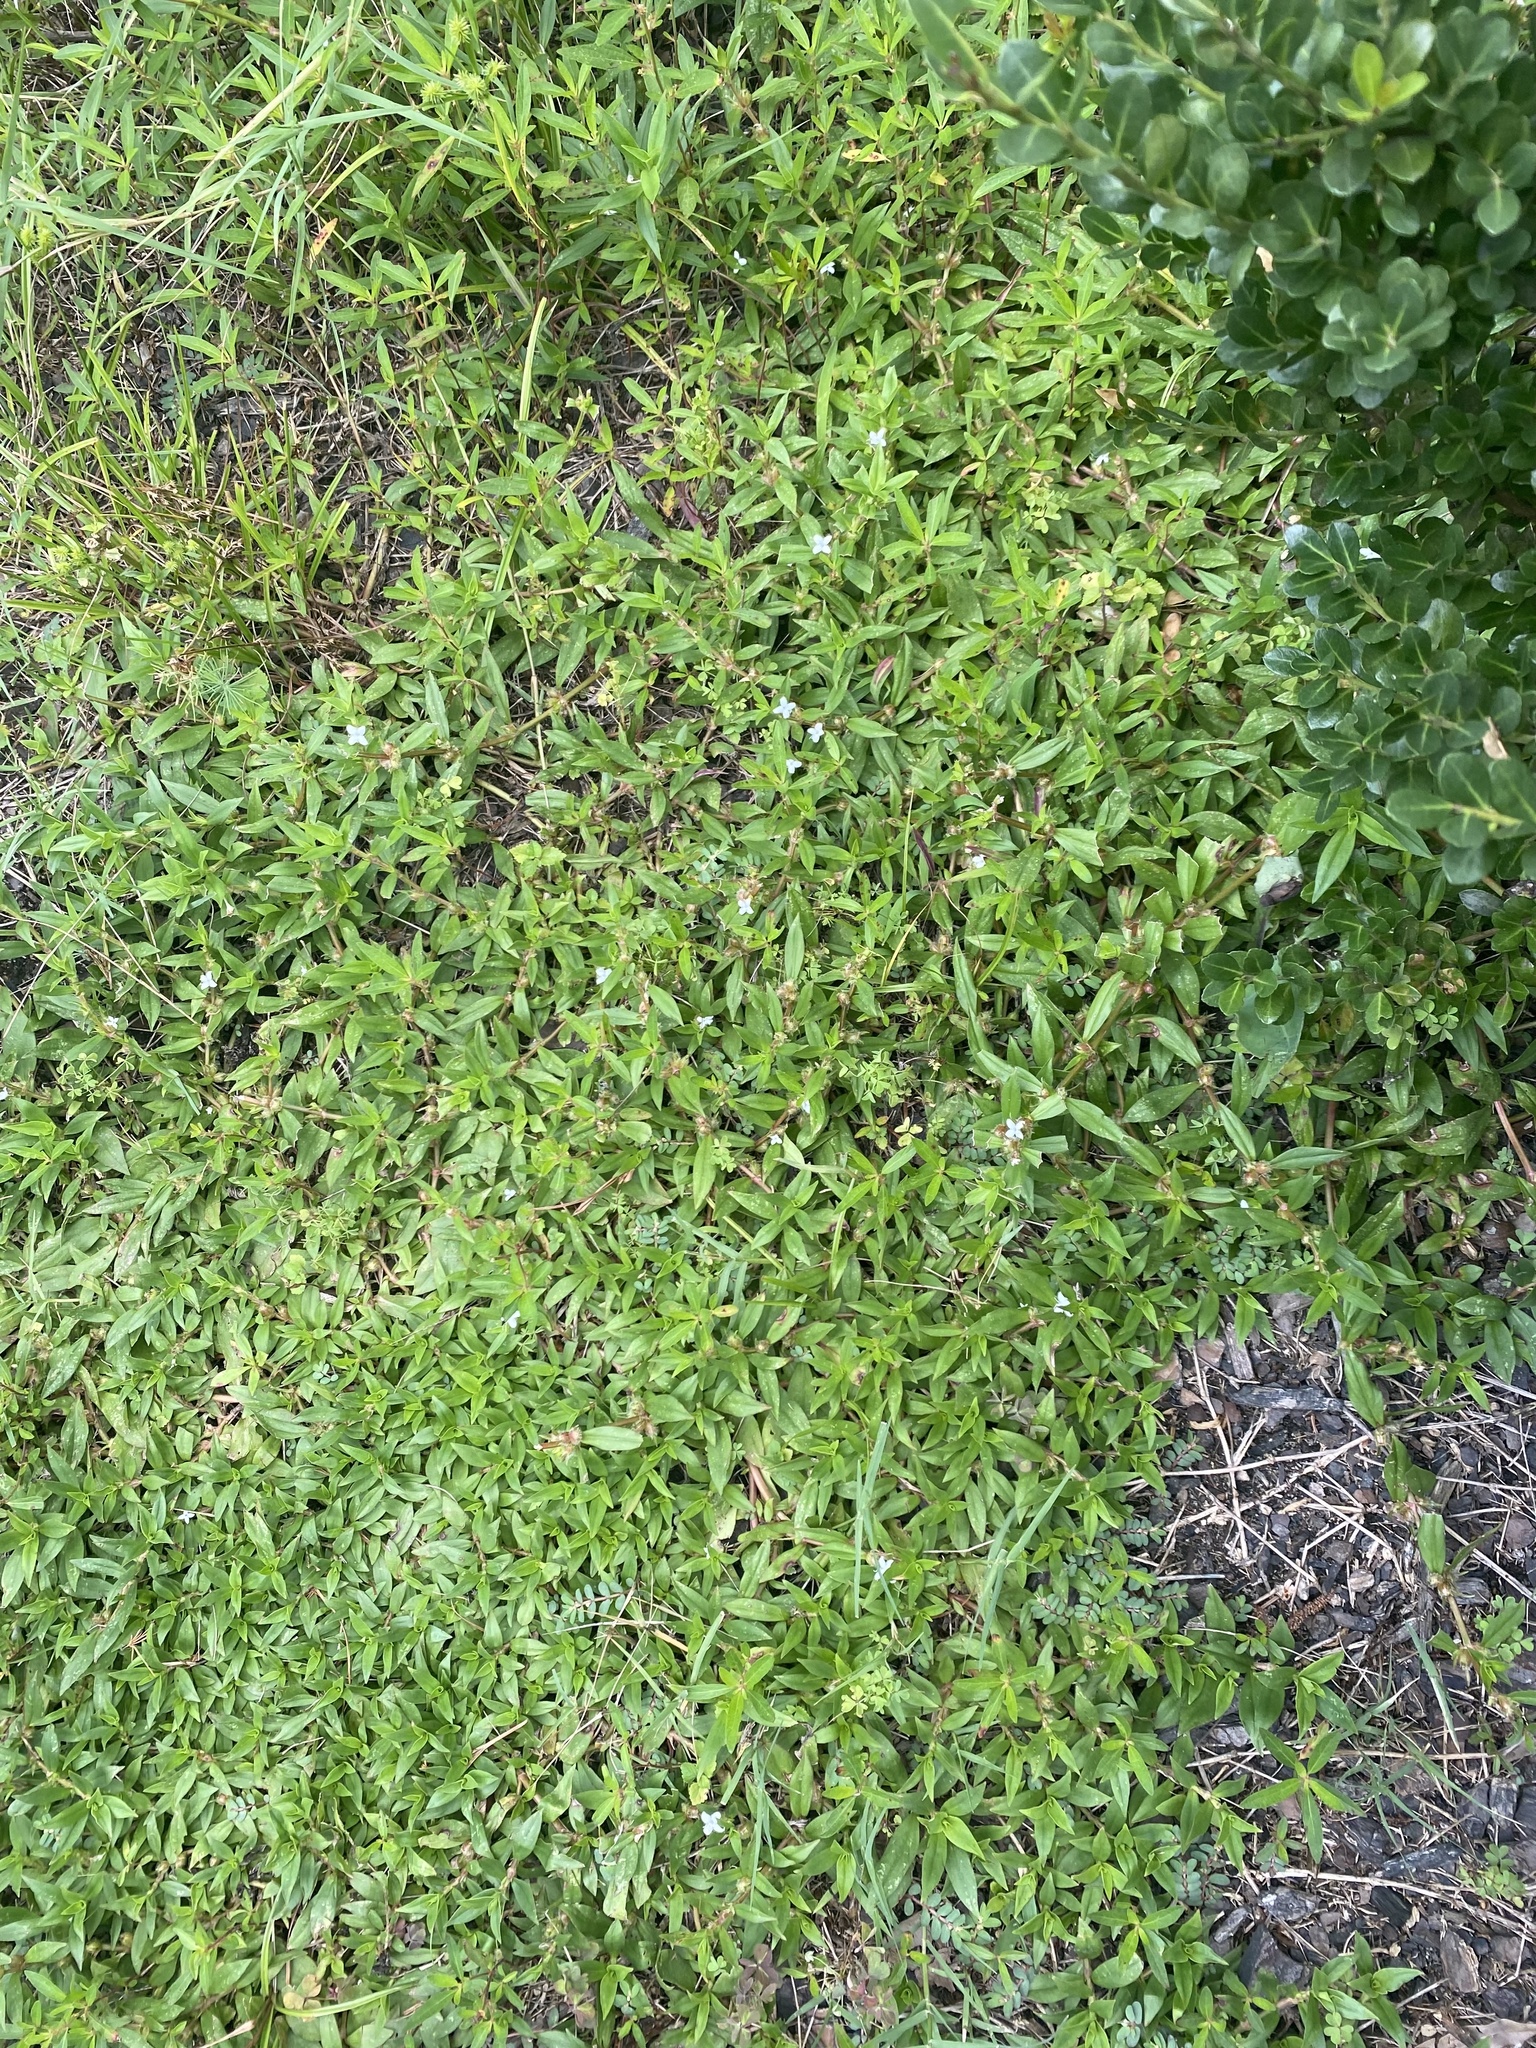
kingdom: Plantae
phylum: Tracheophyta
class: Magnoliopsida
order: Gentianales
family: Rubiaceae
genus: Diodia
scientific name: Diodia virginiana
